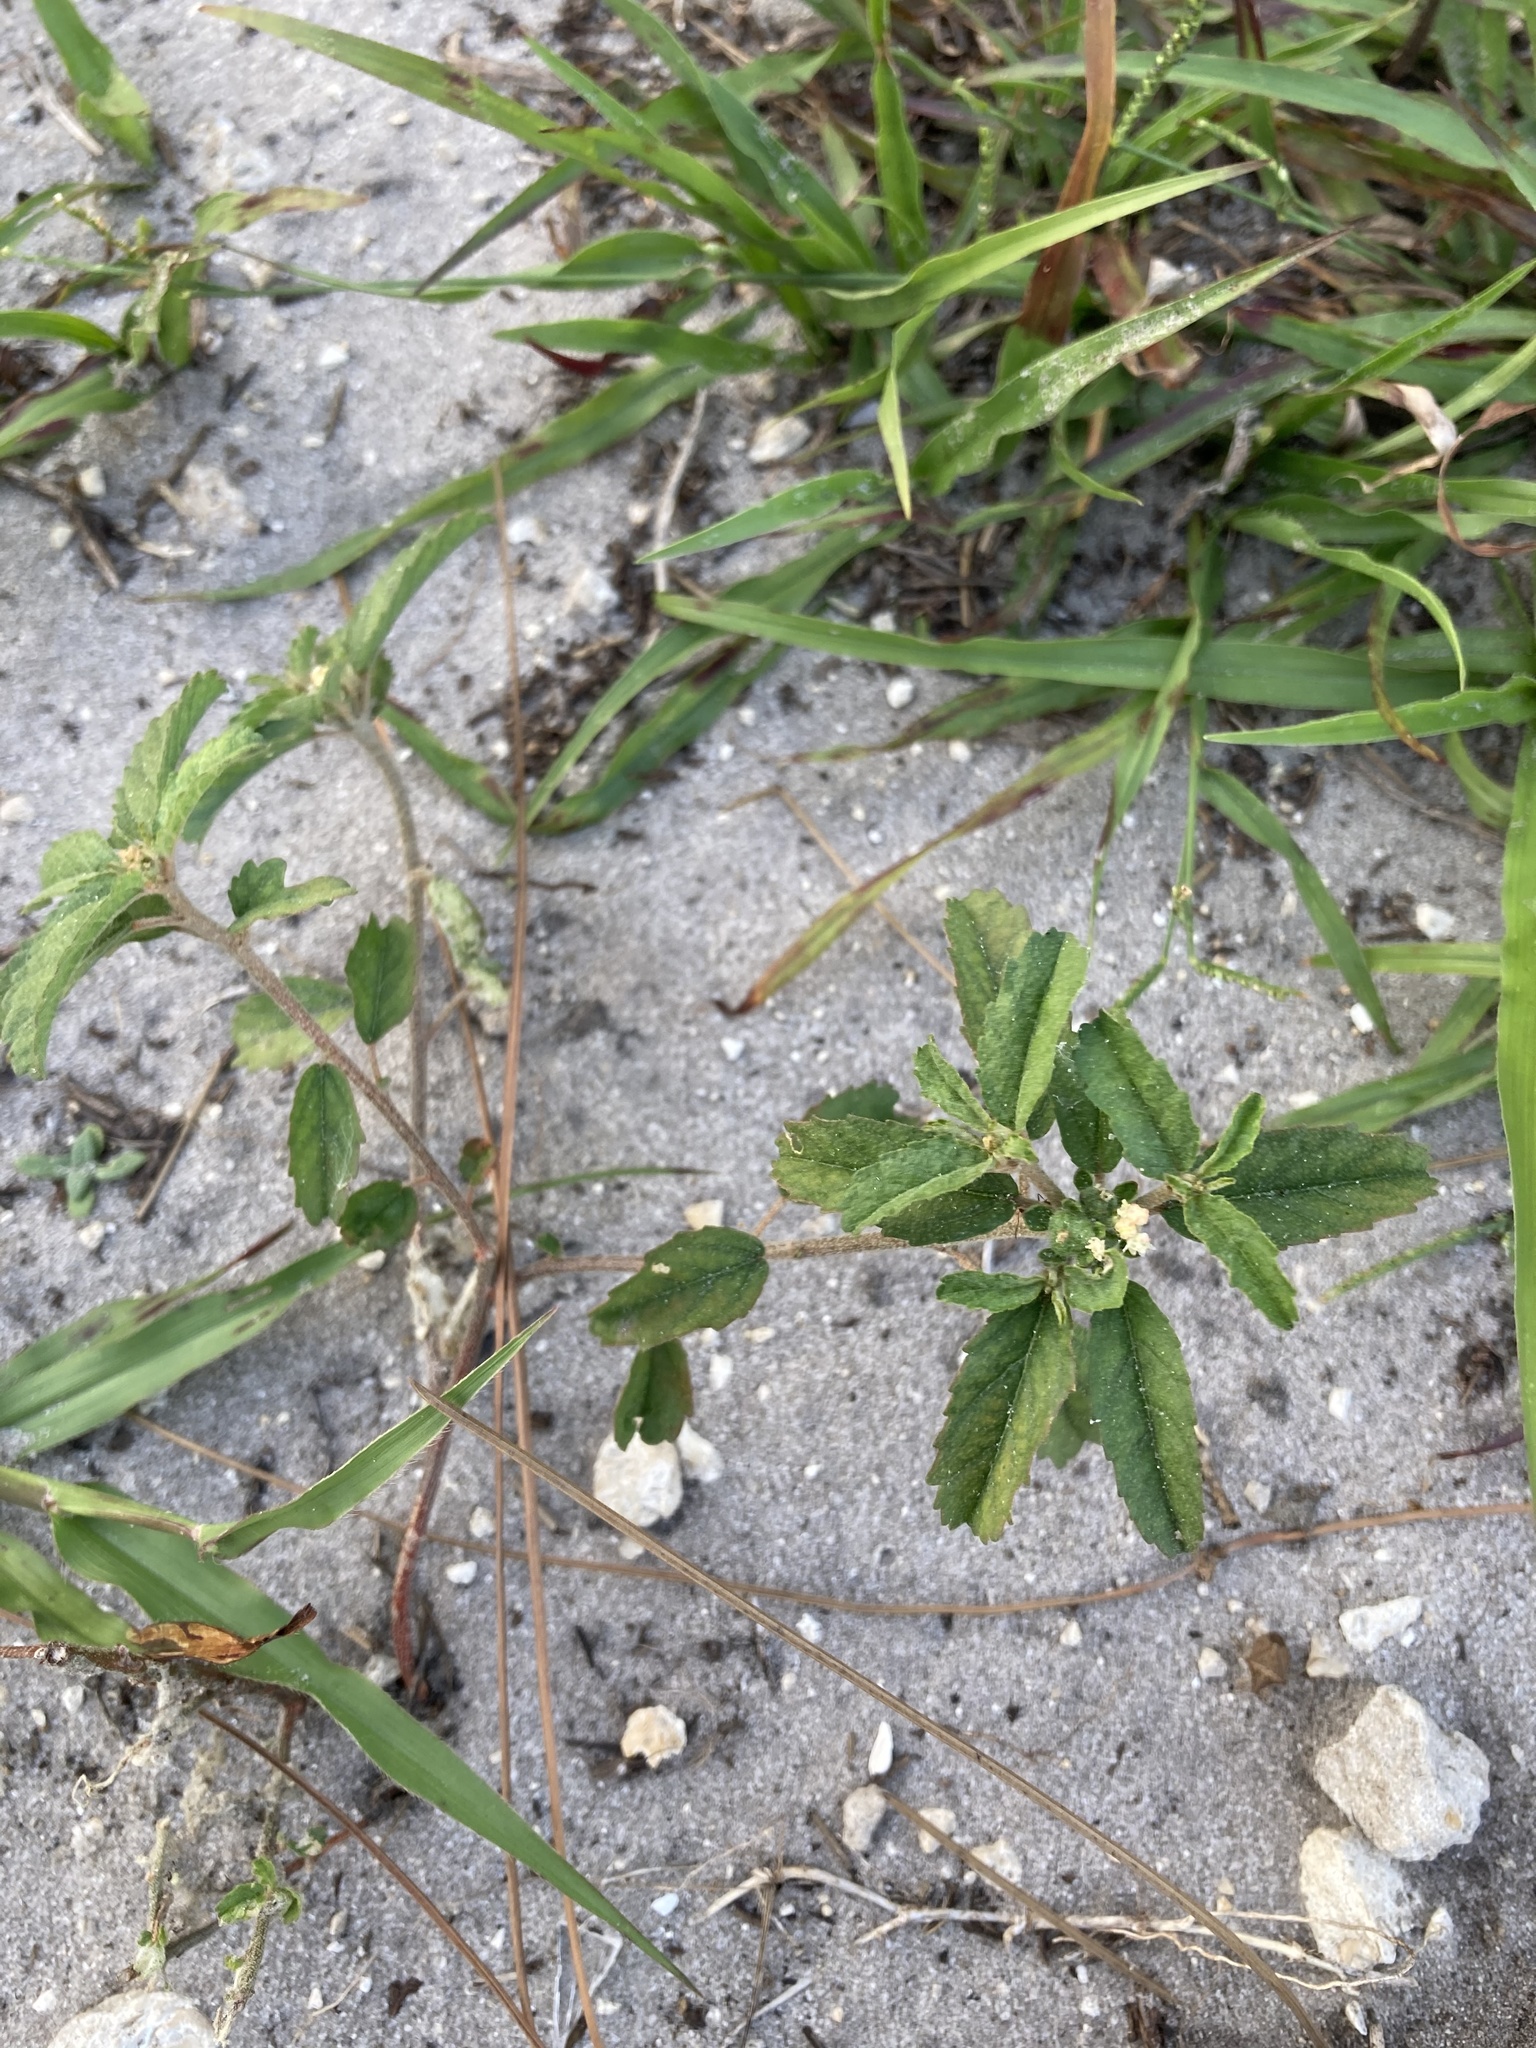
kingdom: Plantae
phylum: Tracheophyta
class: Magnoliopsida
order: Malpighiales
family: Euphorbiaceae
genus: Croton
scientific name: Croton glandulosus
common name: Tropic croton
